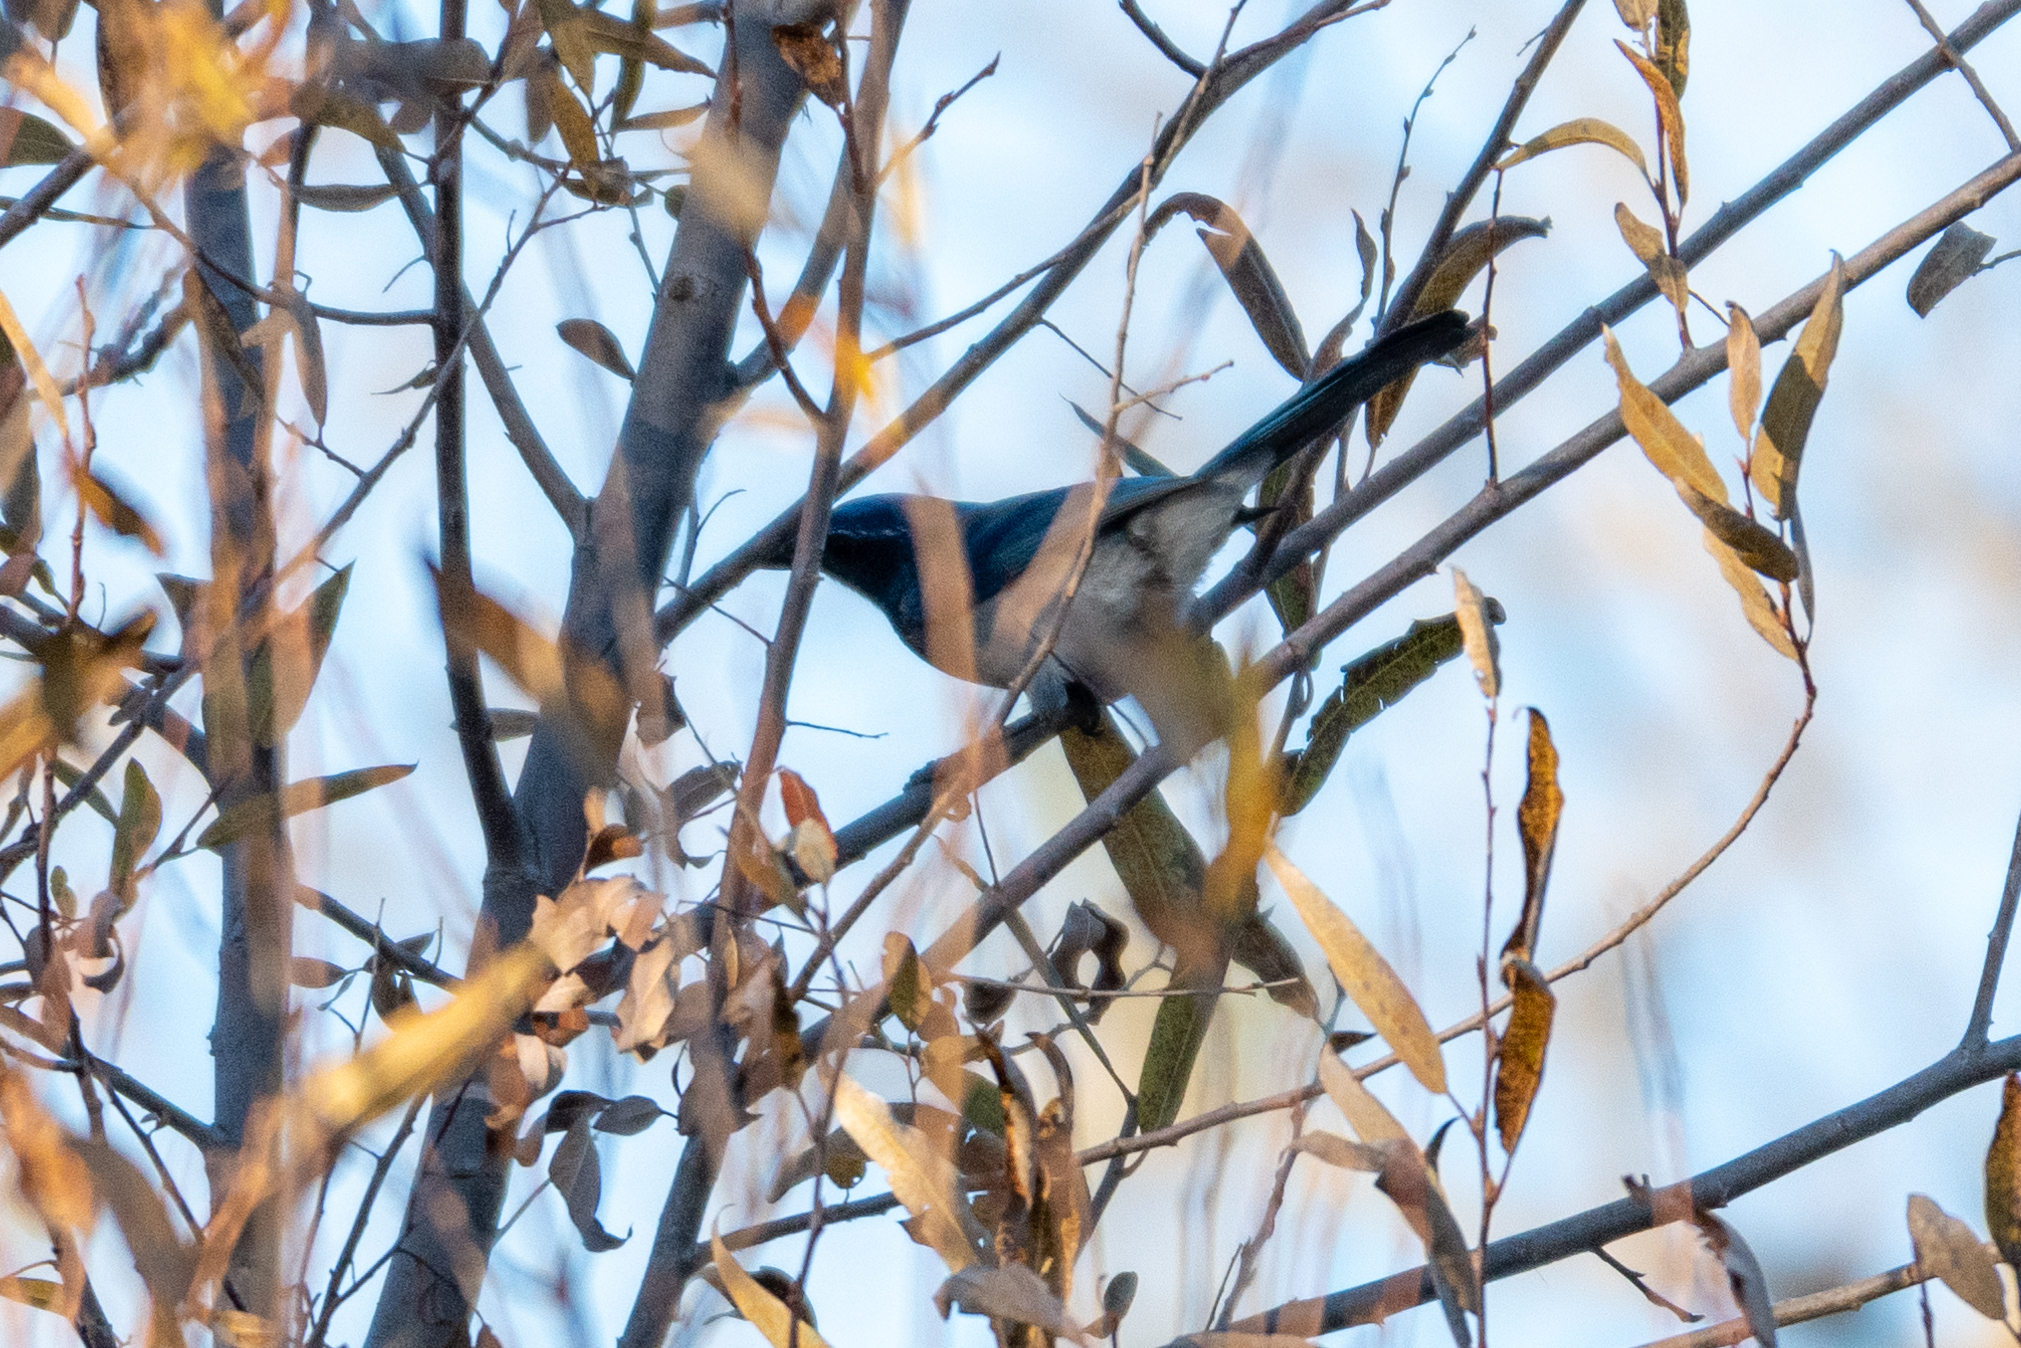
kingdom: Animalia
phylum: Chordata
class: Aves
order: Passeriformes
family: Corvidae
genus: Aphelocoma
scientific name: Aphelocoma californica
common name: California scrub-jay
